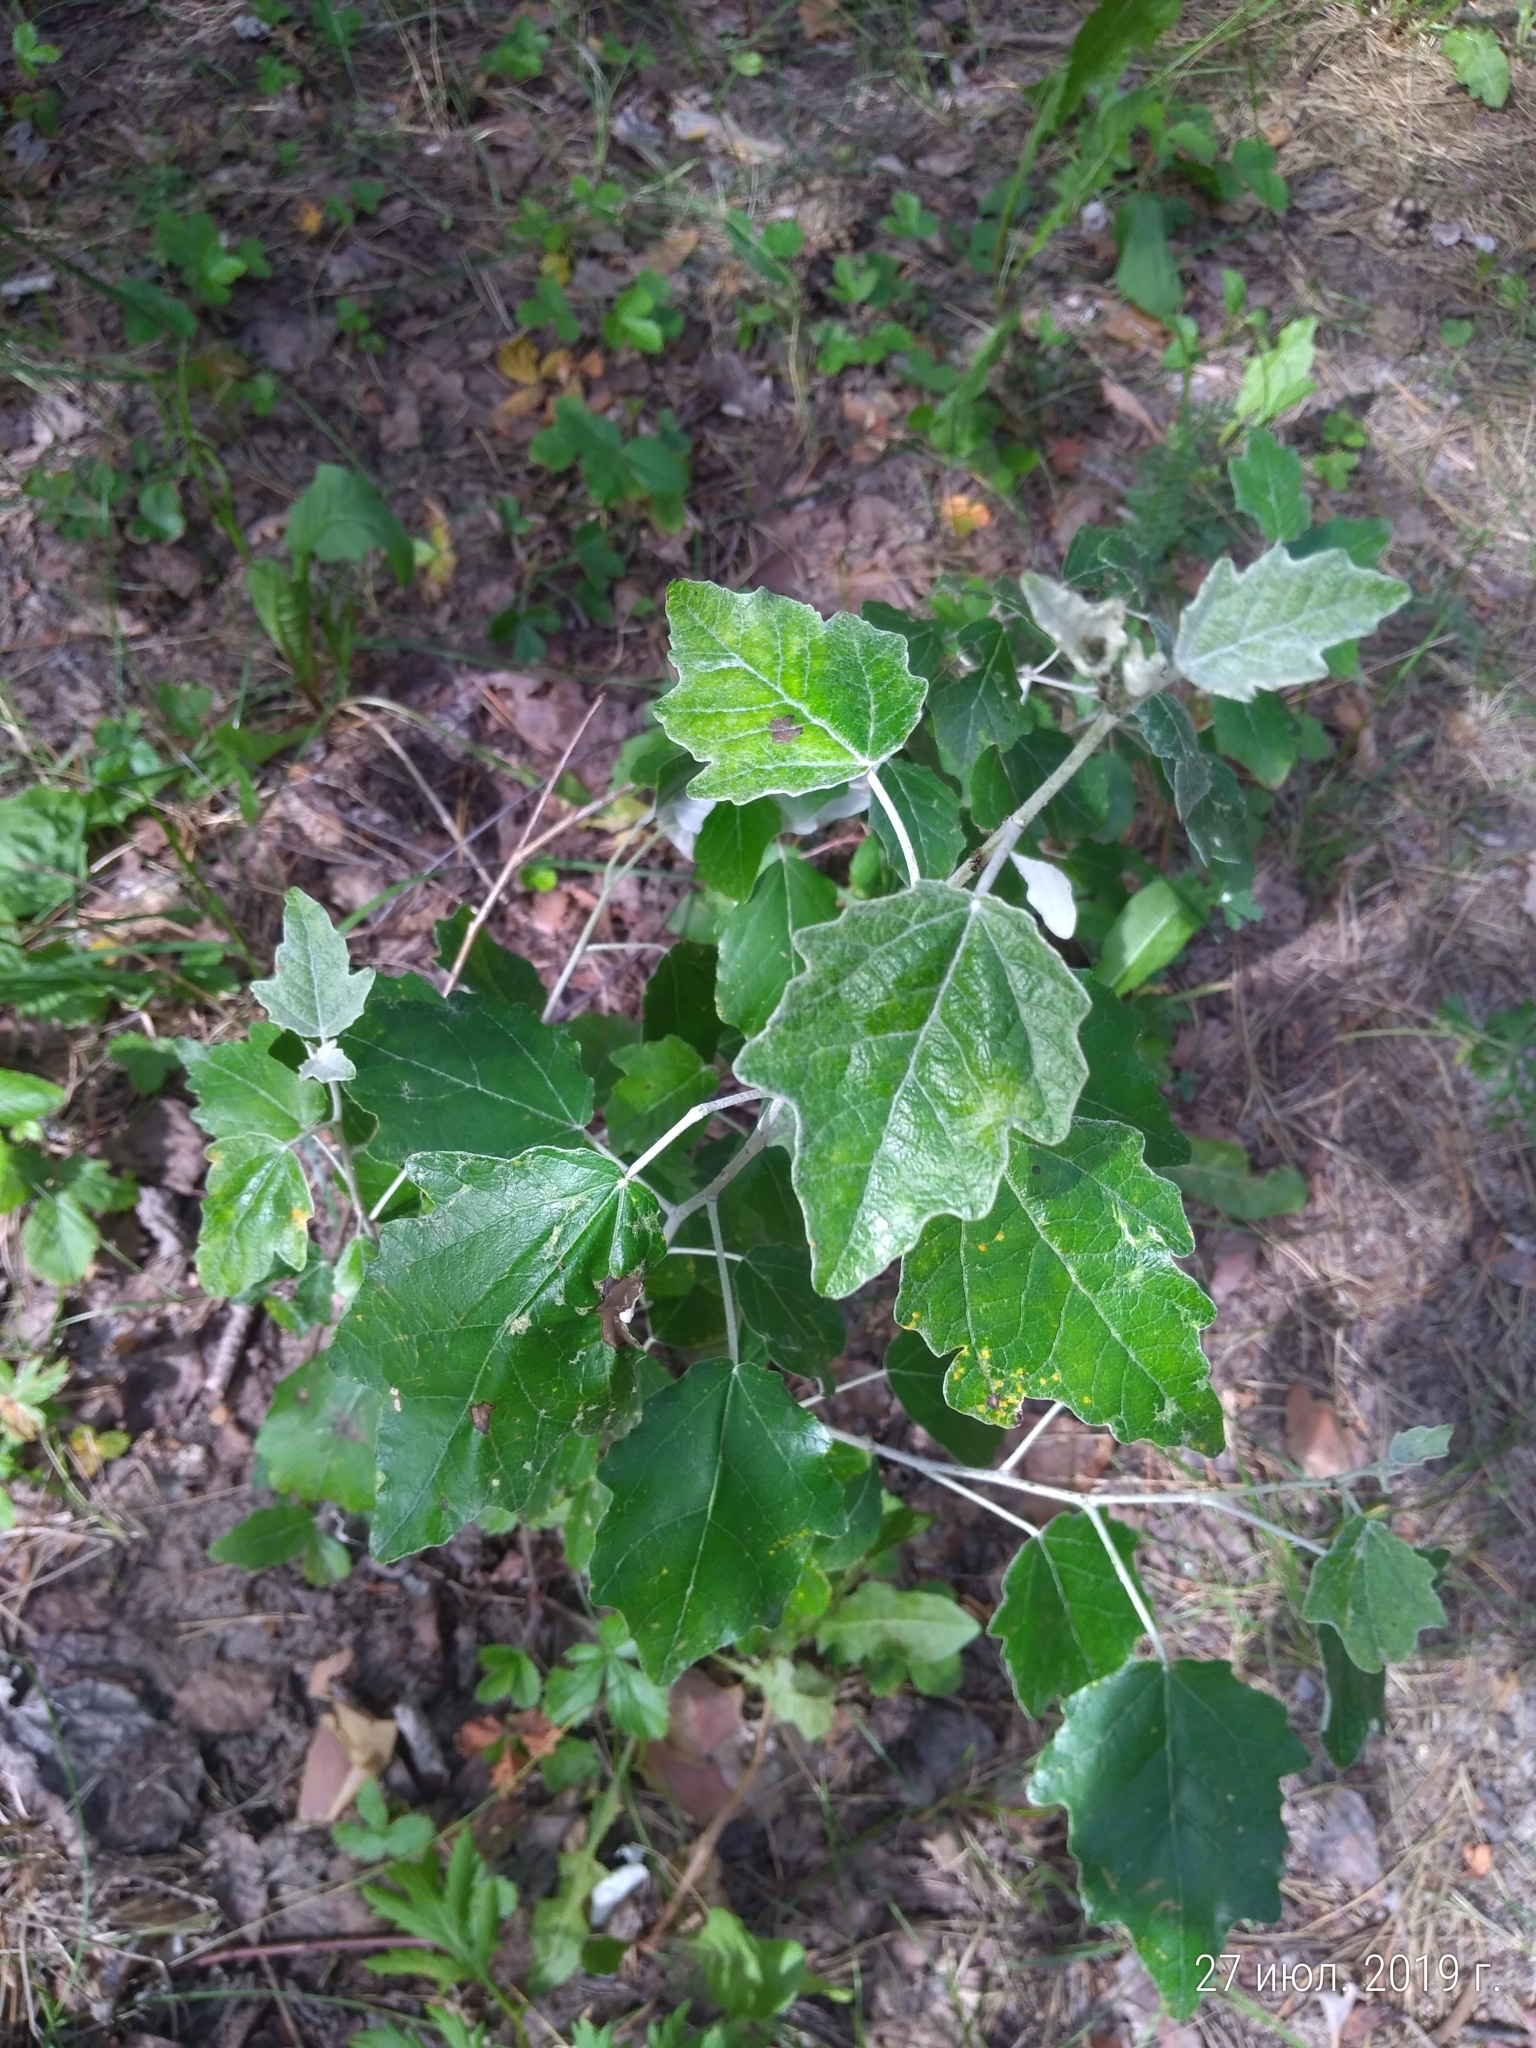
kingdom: Plantae
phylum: Tracheophyta
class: Magnoliopsida
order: Malpighiales
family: Salicaceae
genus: Populus
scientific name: Populus alba
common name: White poplar
